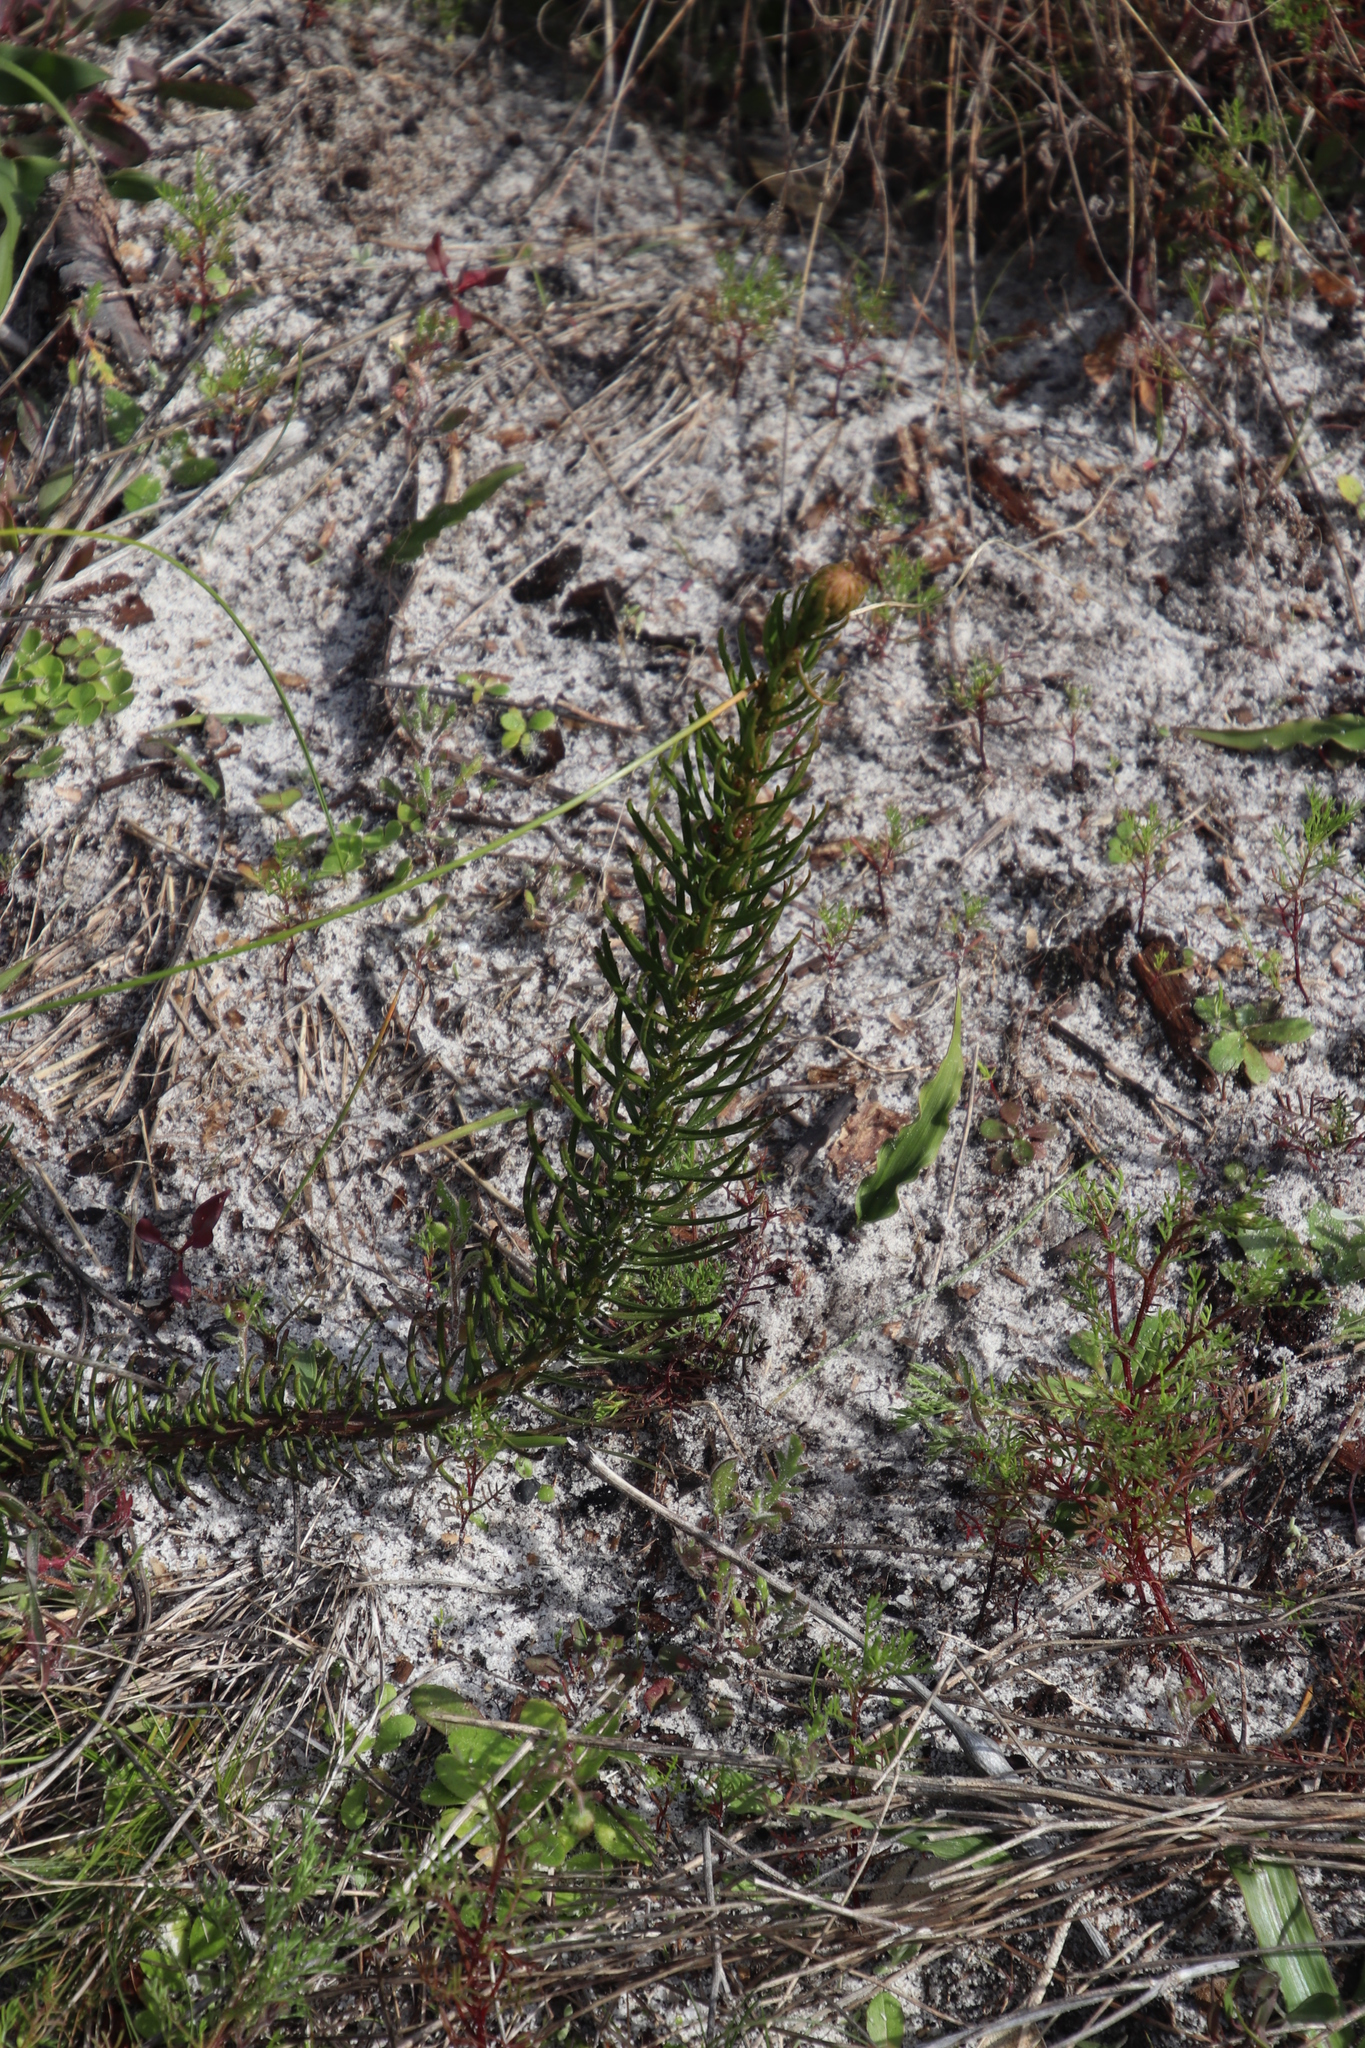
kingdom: Plantae
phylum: Tracheophyta
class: Magnoliopsida
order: Lamiales
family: Scrophulariaceae
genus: Pseudoselago
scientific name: Pseudoselago spuria
